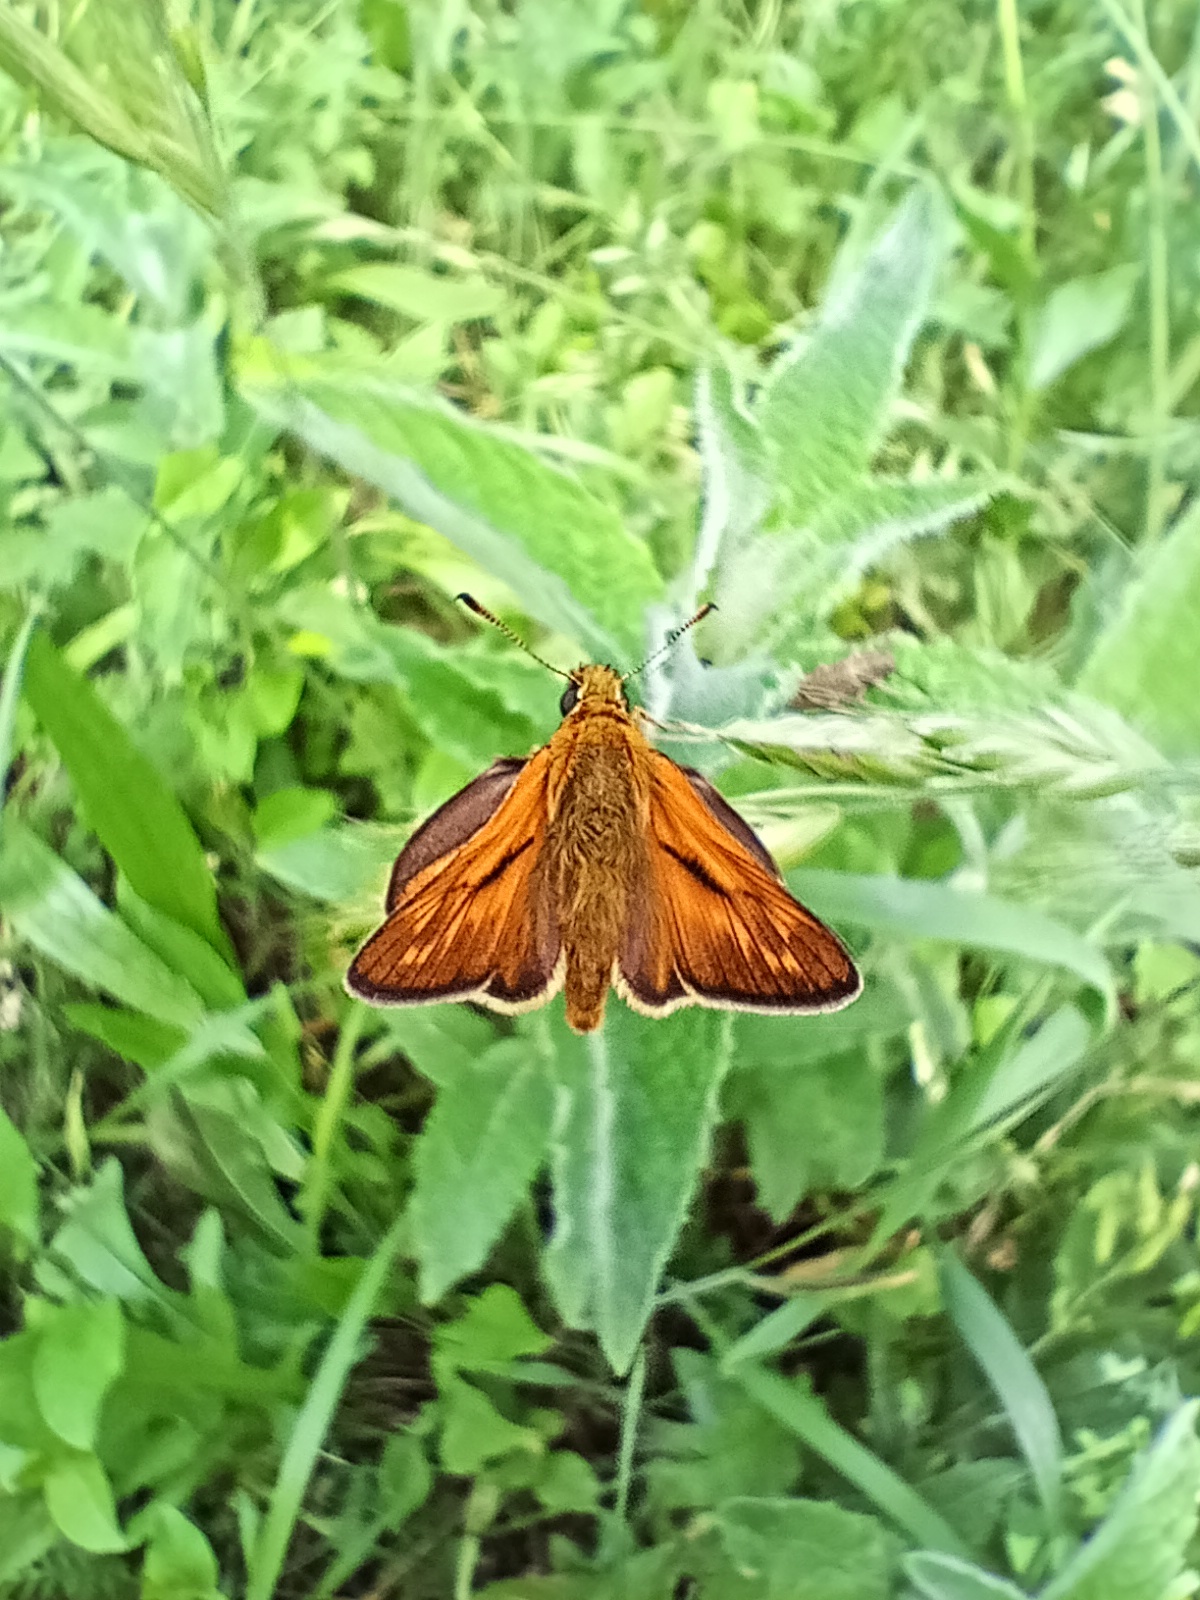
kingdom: Animalia
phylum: Arthropoda
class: Insecta
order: Lepidoptera
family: Hesperiidae
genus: Ochlodes
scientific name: Ochlodes venata
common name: Large skipper
